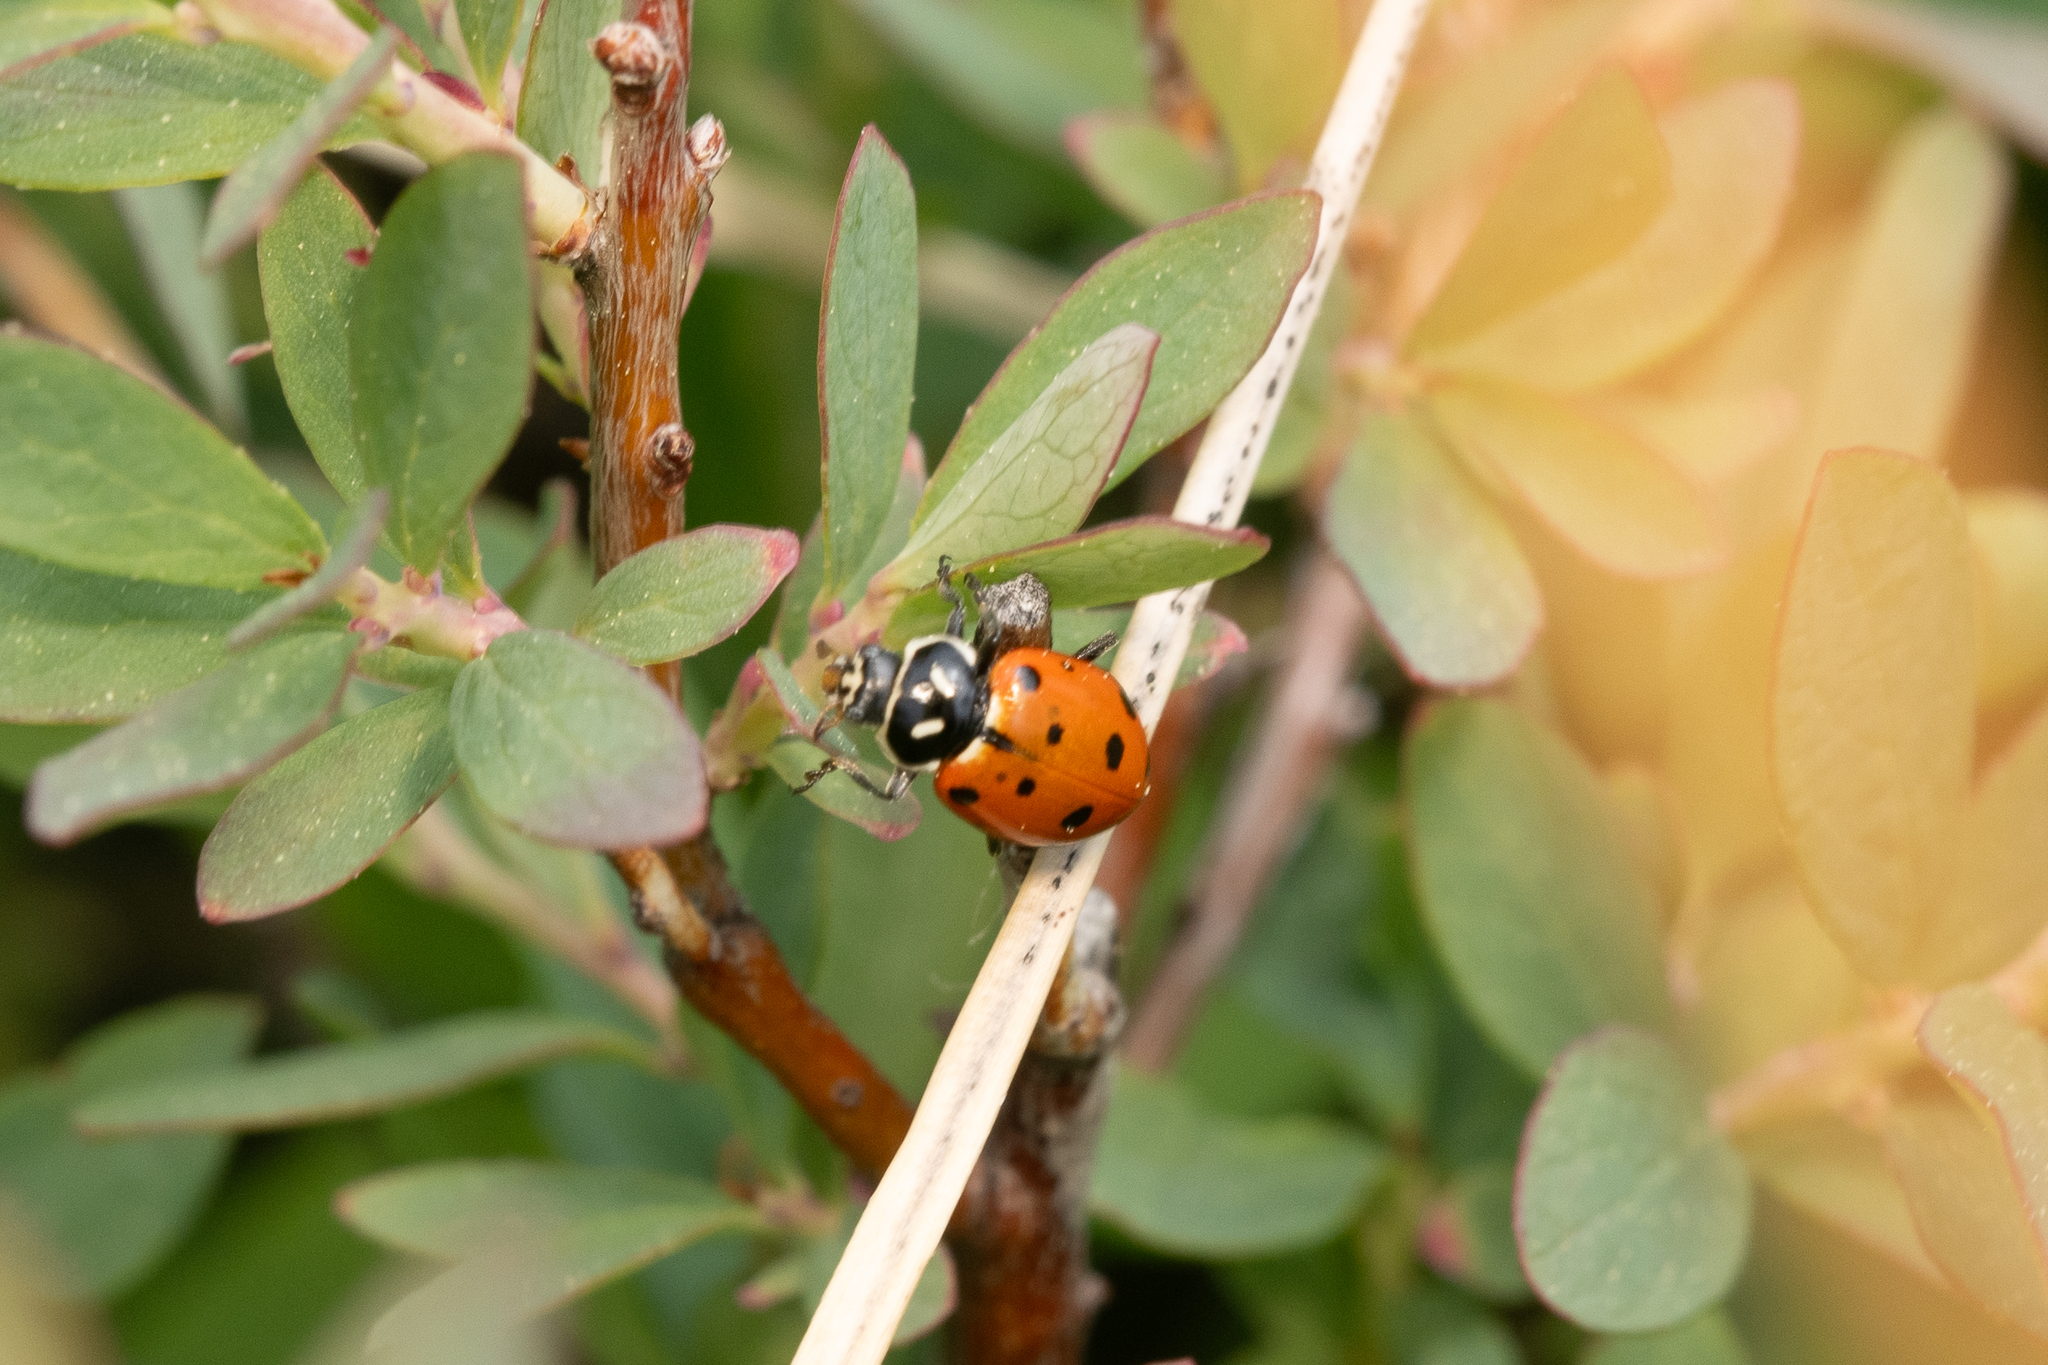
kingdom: Animalia
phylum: Arthropoda
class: Insecta
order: Coleoptera
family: Coccinellidae
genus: Hippodamia
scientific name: Hippodamia convergens
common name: Convergent lady beetle
